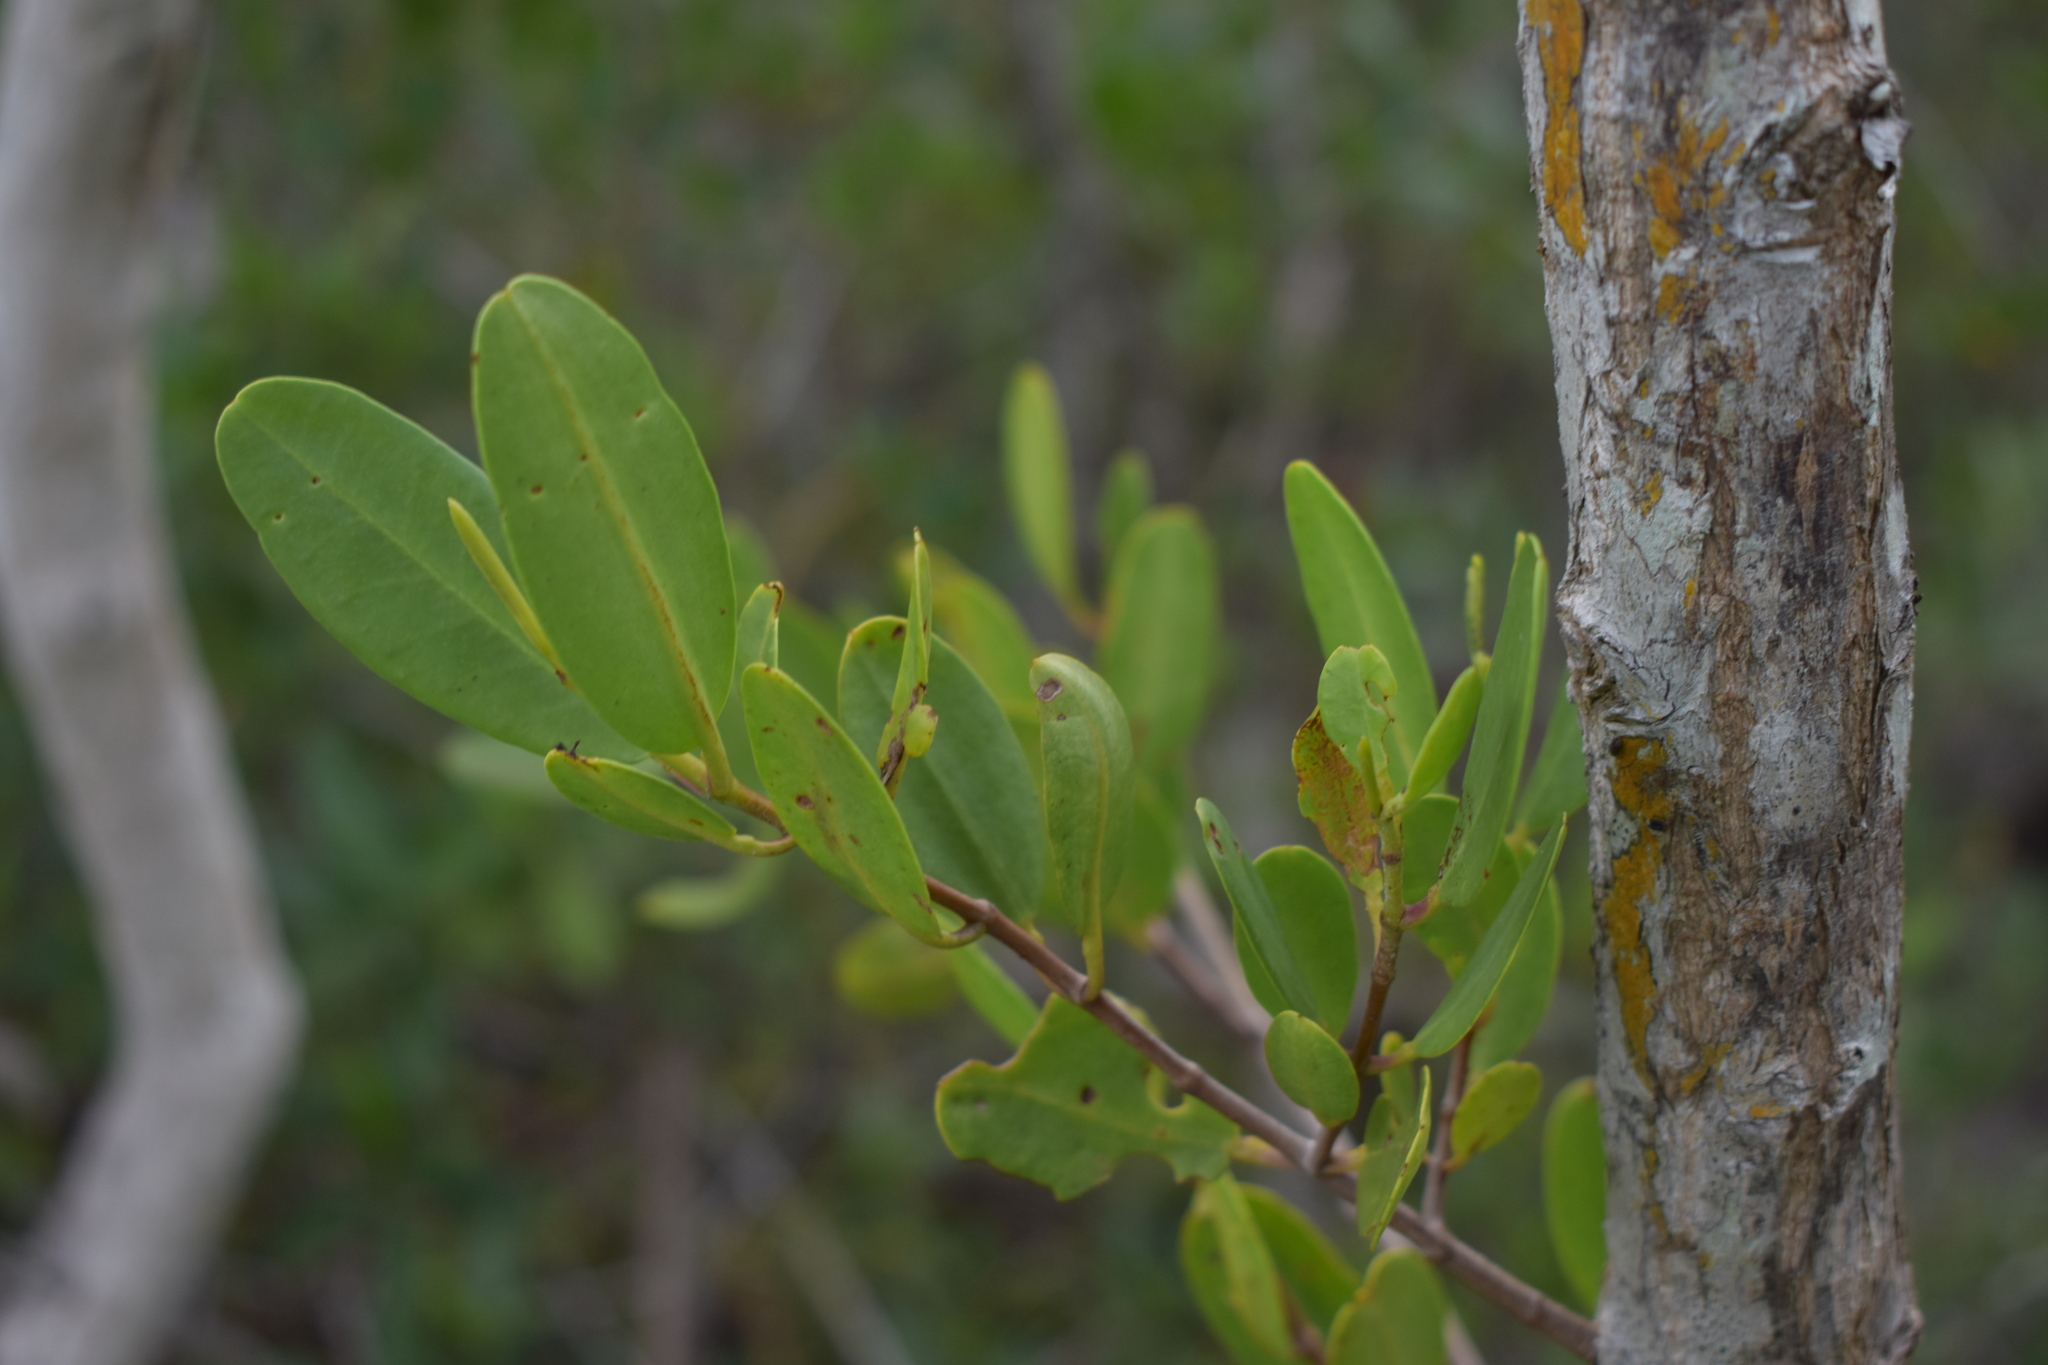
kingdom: Plantae
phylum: Tracheophyta
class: Magnoliopsida
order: Myrtales
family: Combretaceae
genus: Laguncularia
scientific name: Laguncularia racemosa
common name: White mangrove
